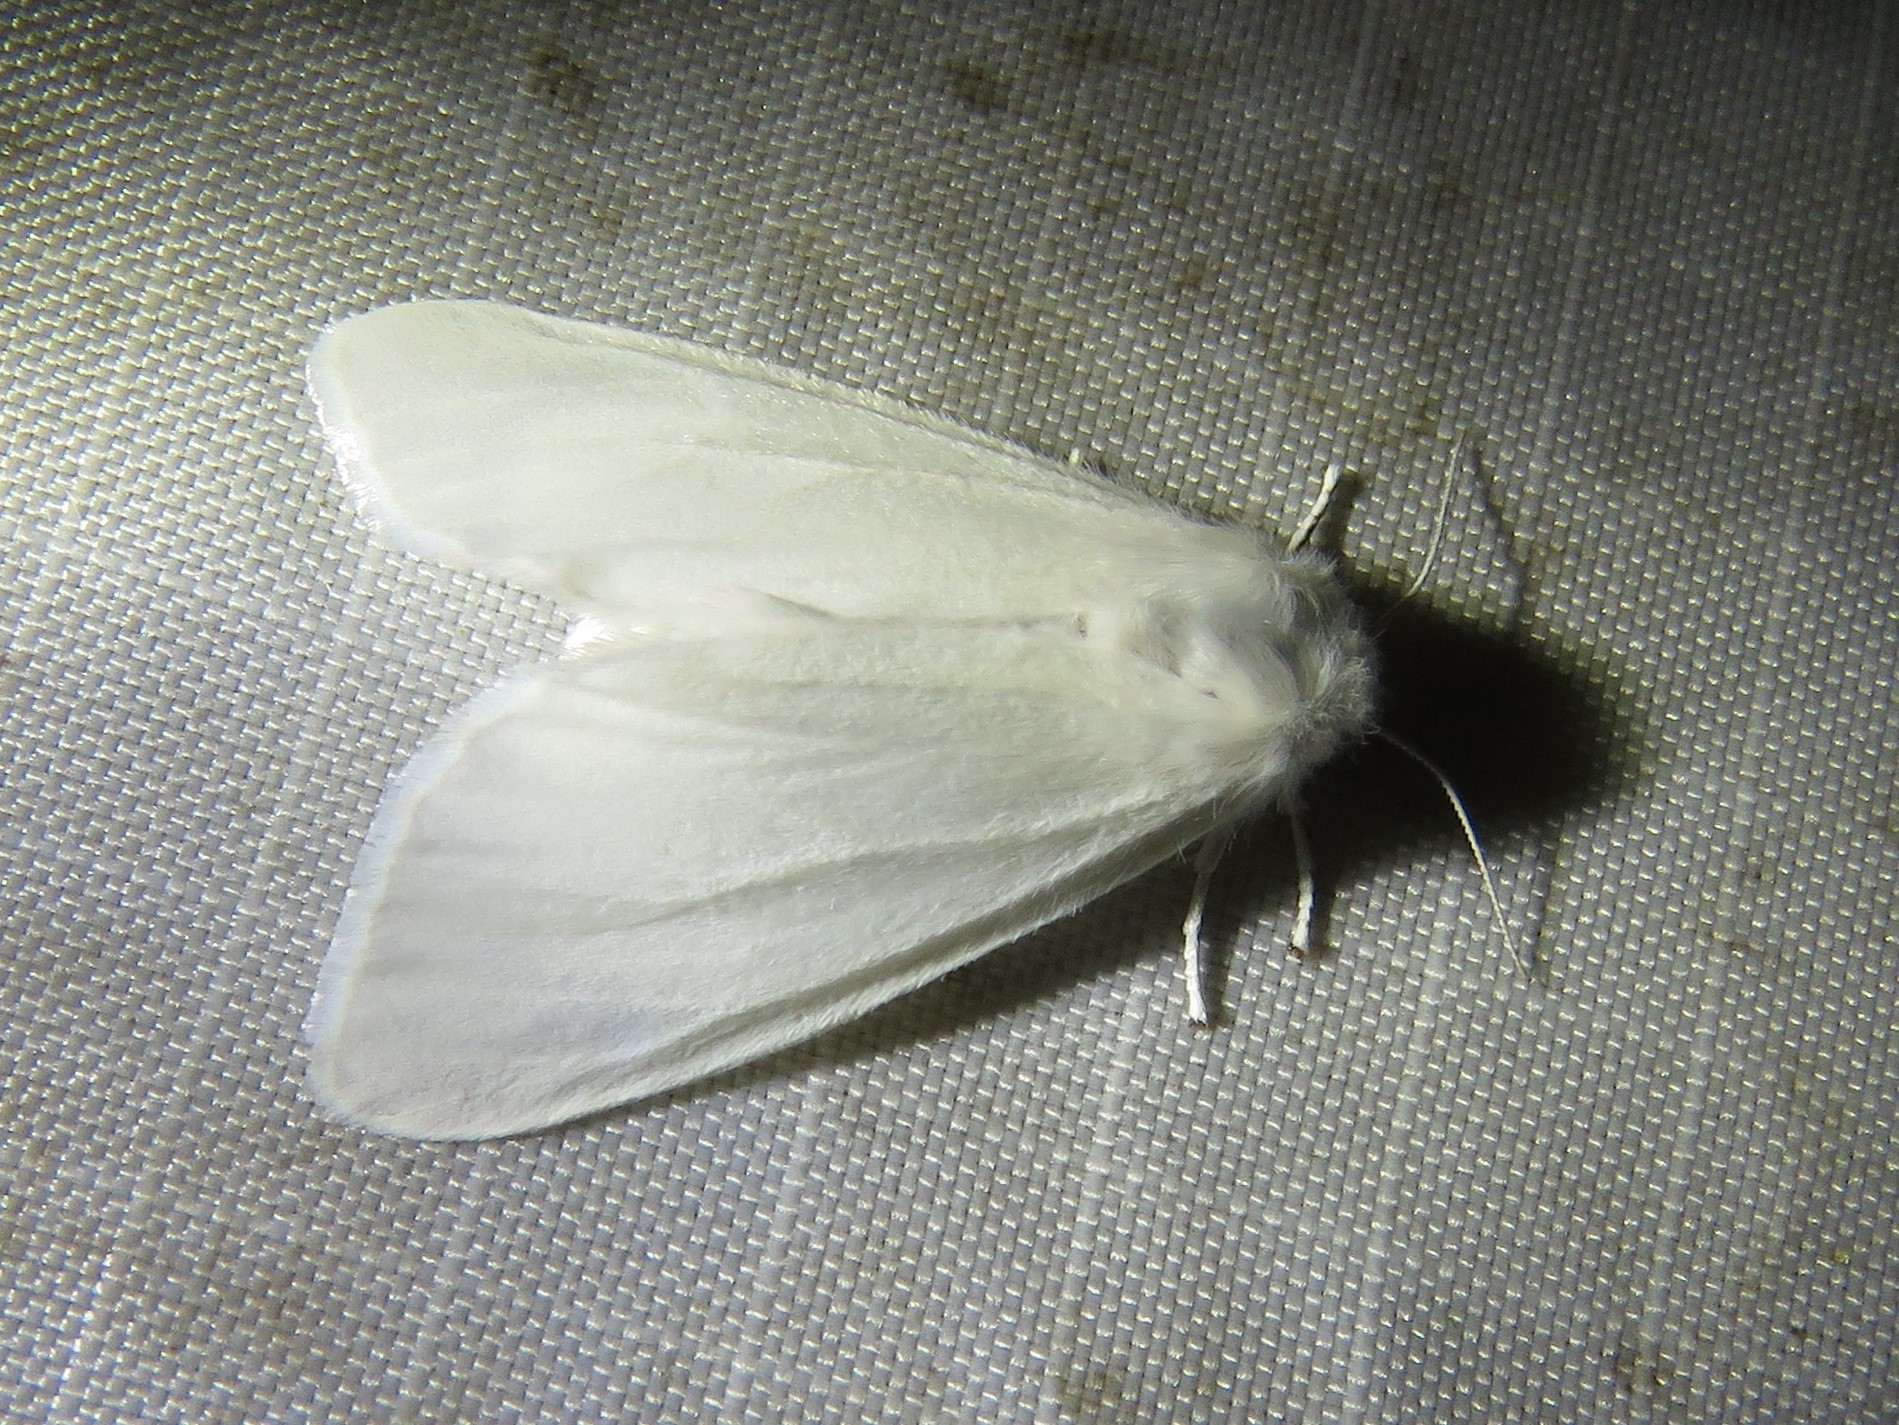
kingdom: Animalia
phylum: Arthropoda
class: Insecta
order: Lepidoptera
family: Erebidae
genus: Hyphantria
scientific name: Hyphantria cunea
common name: American white moth
